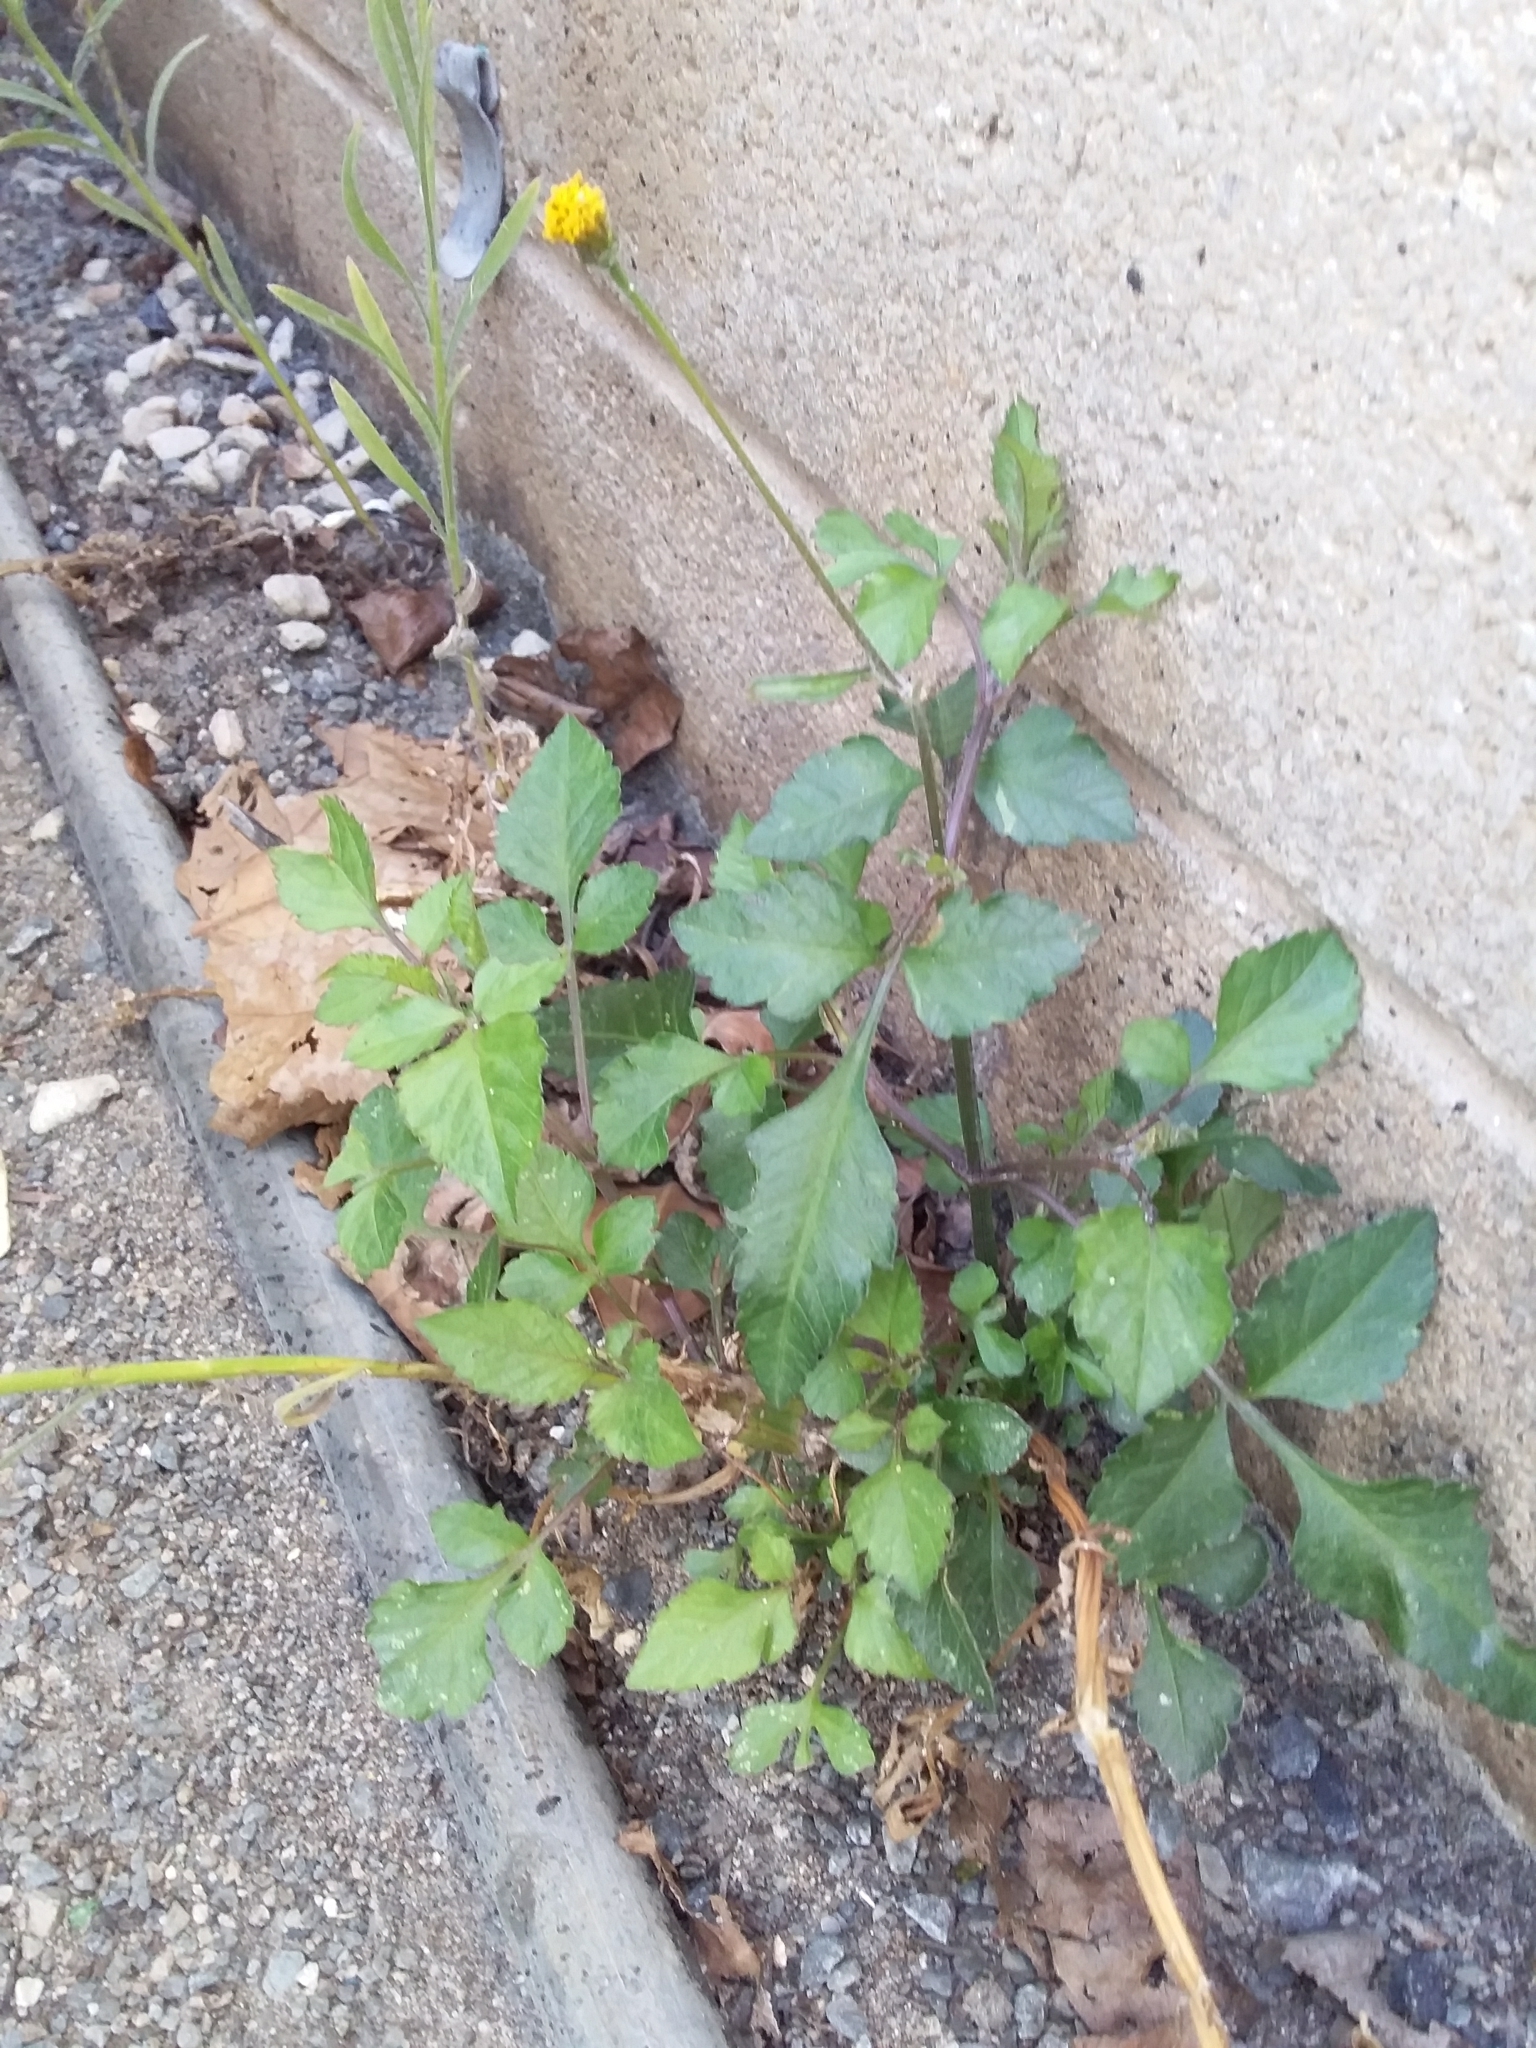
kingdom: Plantae
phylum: Tracheophyta
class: Magnoliopsida
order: Asterales
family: Asteraceae
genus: Bidens
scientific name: Bidens pilosa
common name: Black-jack
